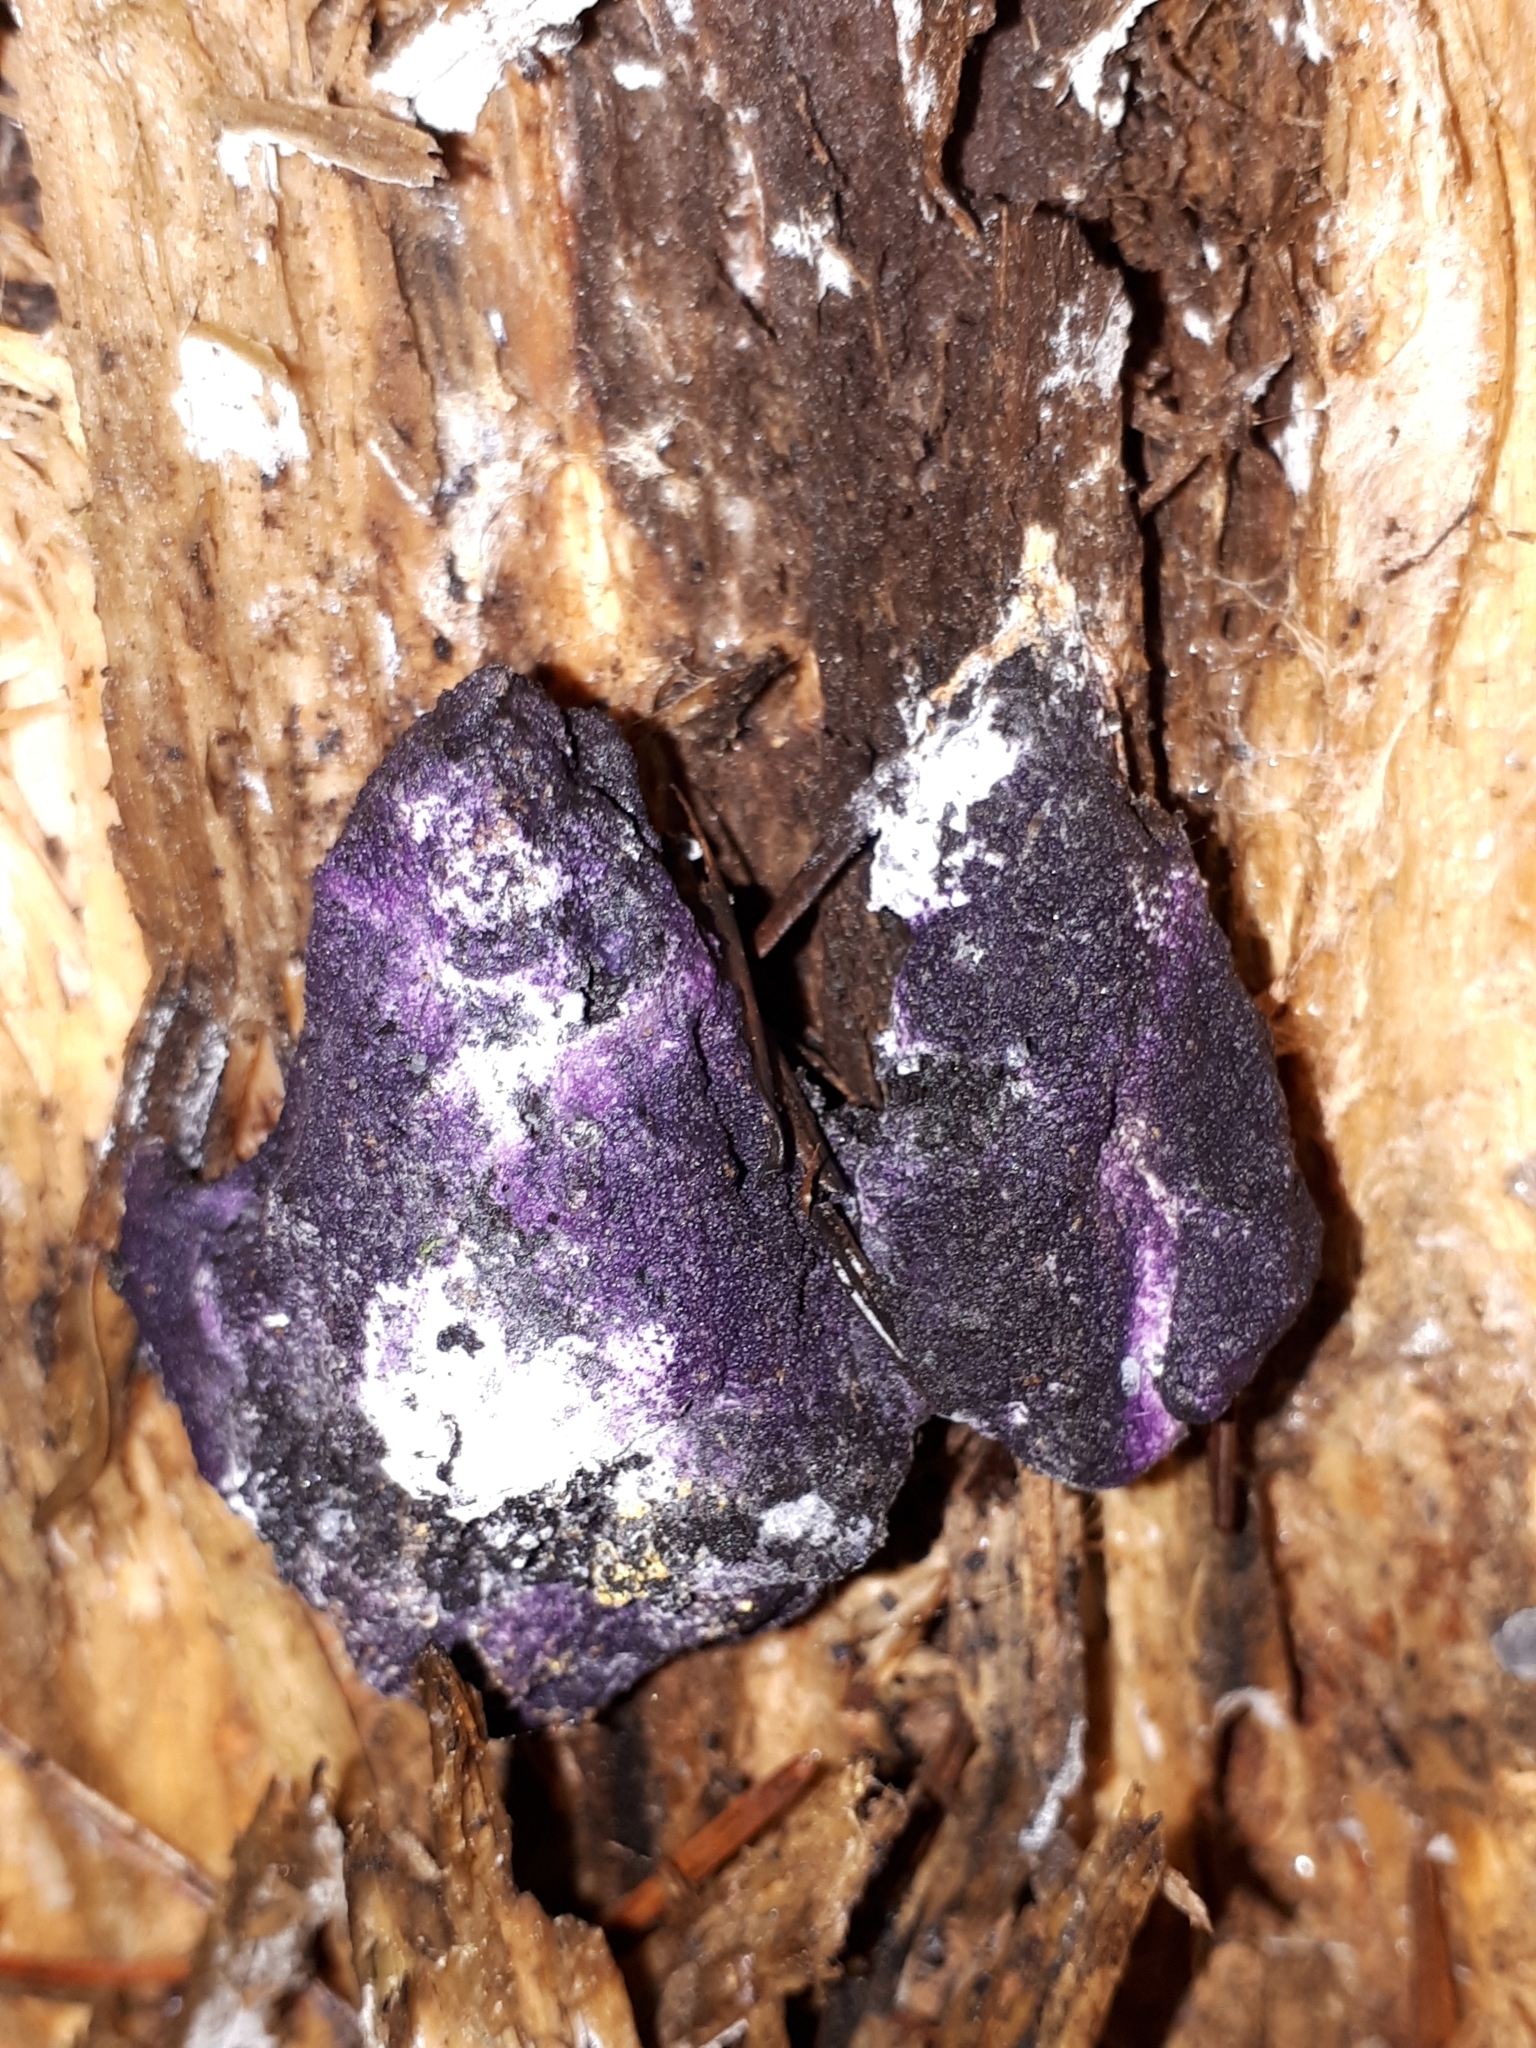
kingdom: Fungi
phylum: Ascomycota
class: Sordariomycetes
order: Hypocreales
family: Bionectriaceae
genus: Nectriopsis
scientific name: Nectriopsis violacea
